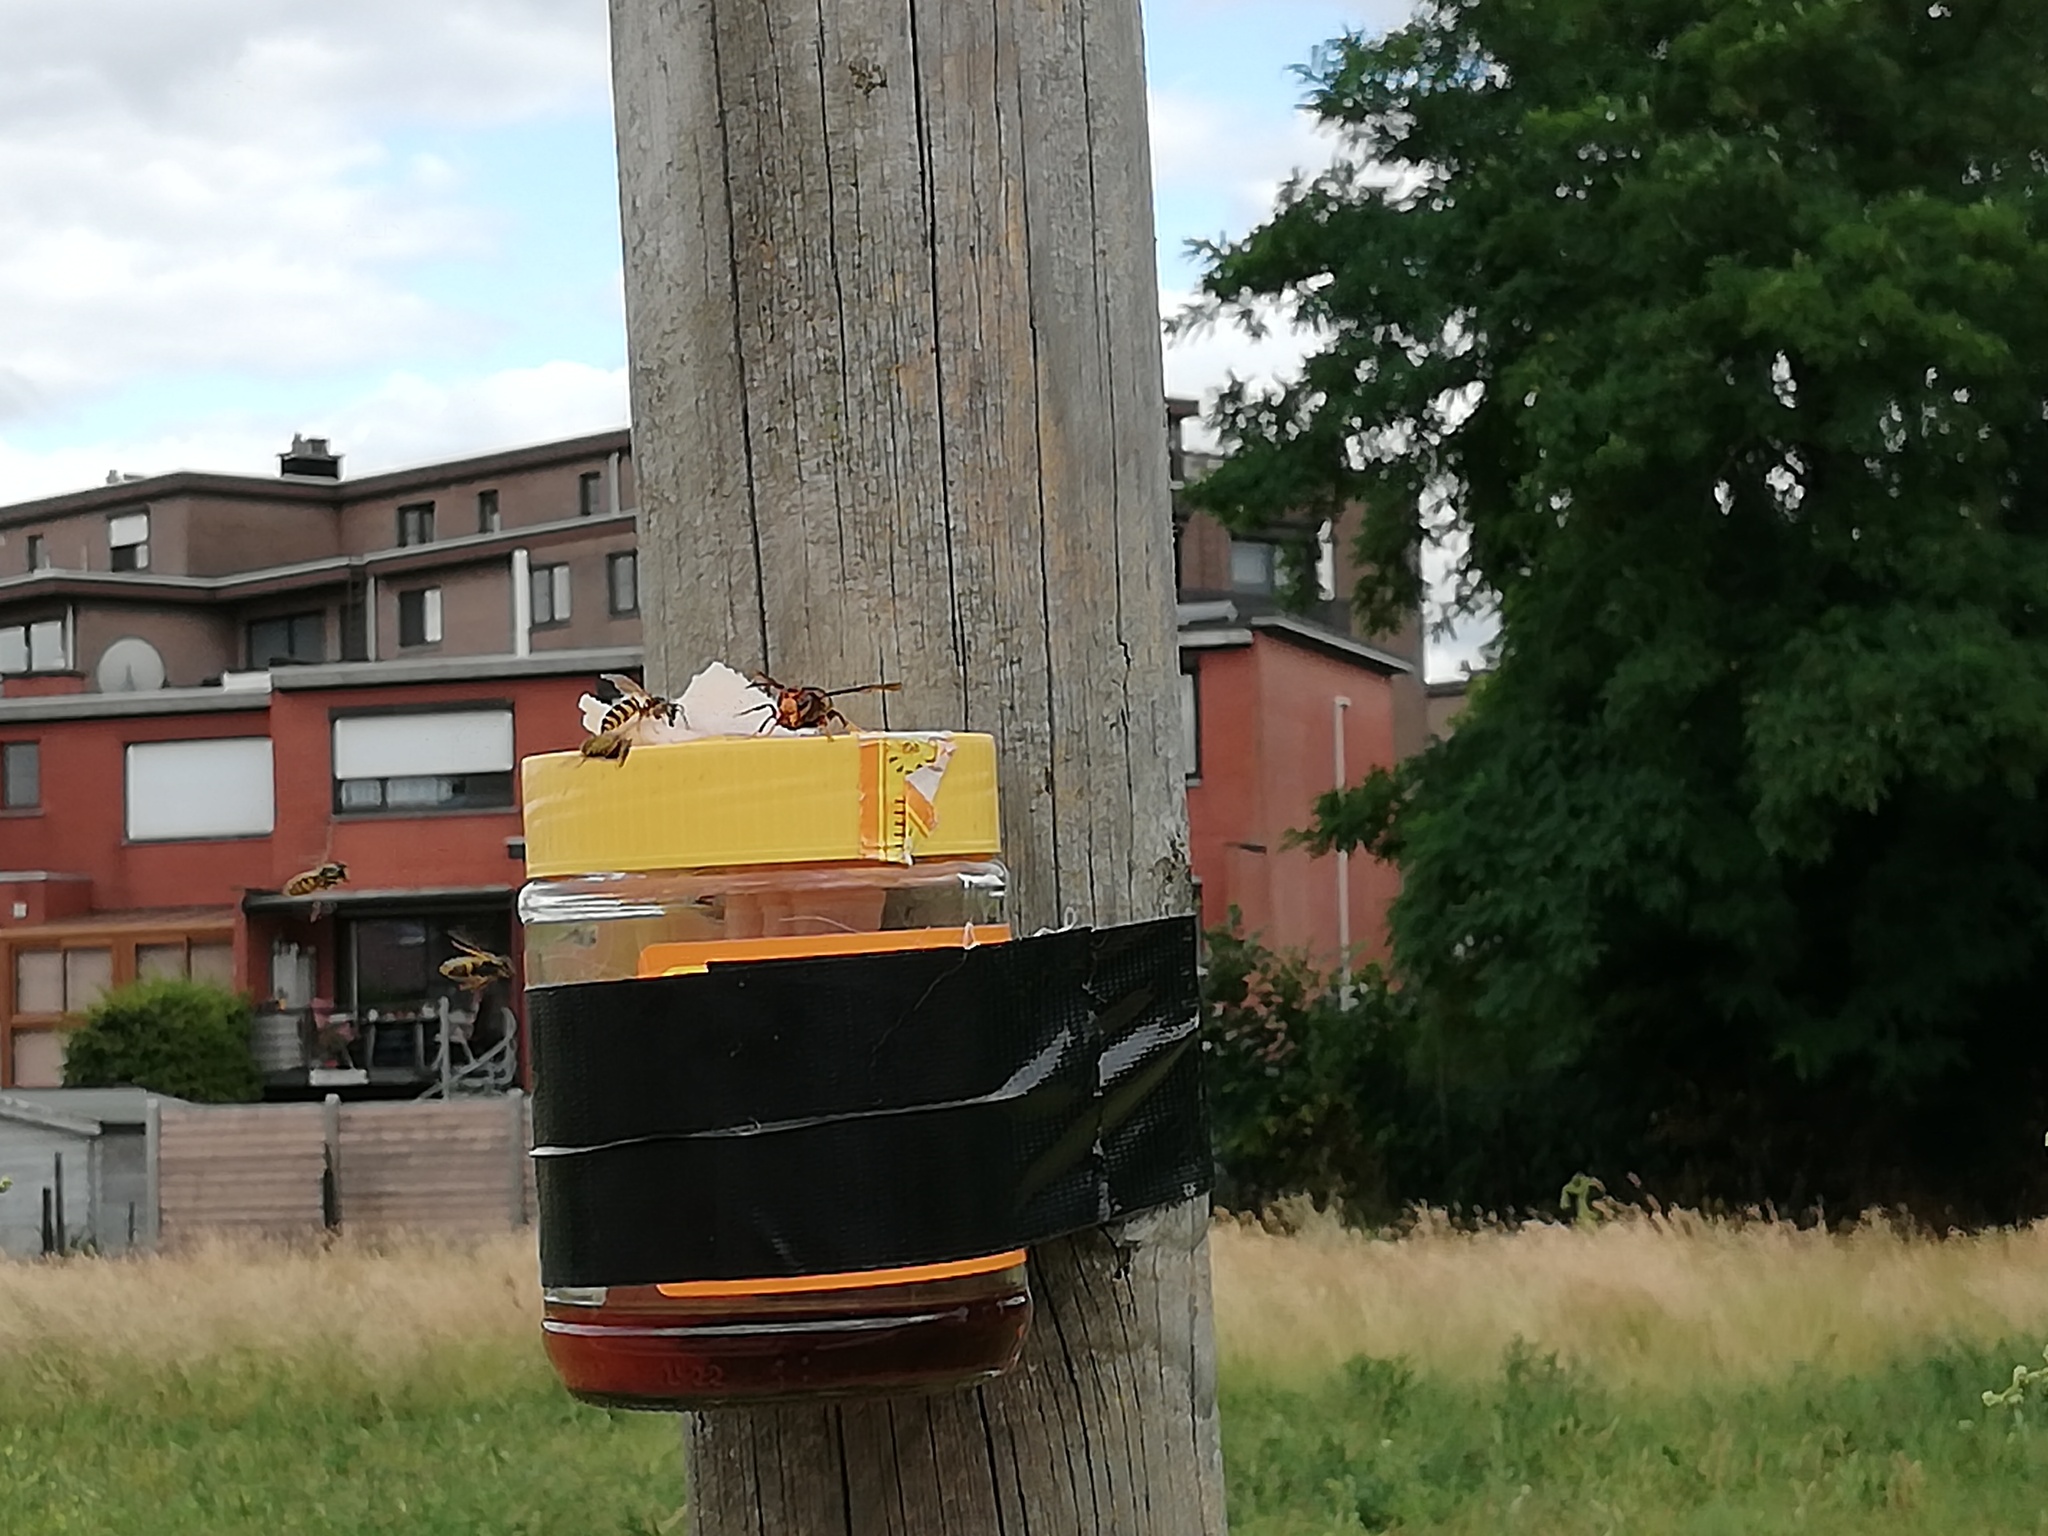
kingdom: Animalia
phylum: Arthropoda
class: Insecta
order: Hymenoptera
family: Vespidae
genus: Vespa
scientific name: Vespa velutina
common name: Asian hornet
